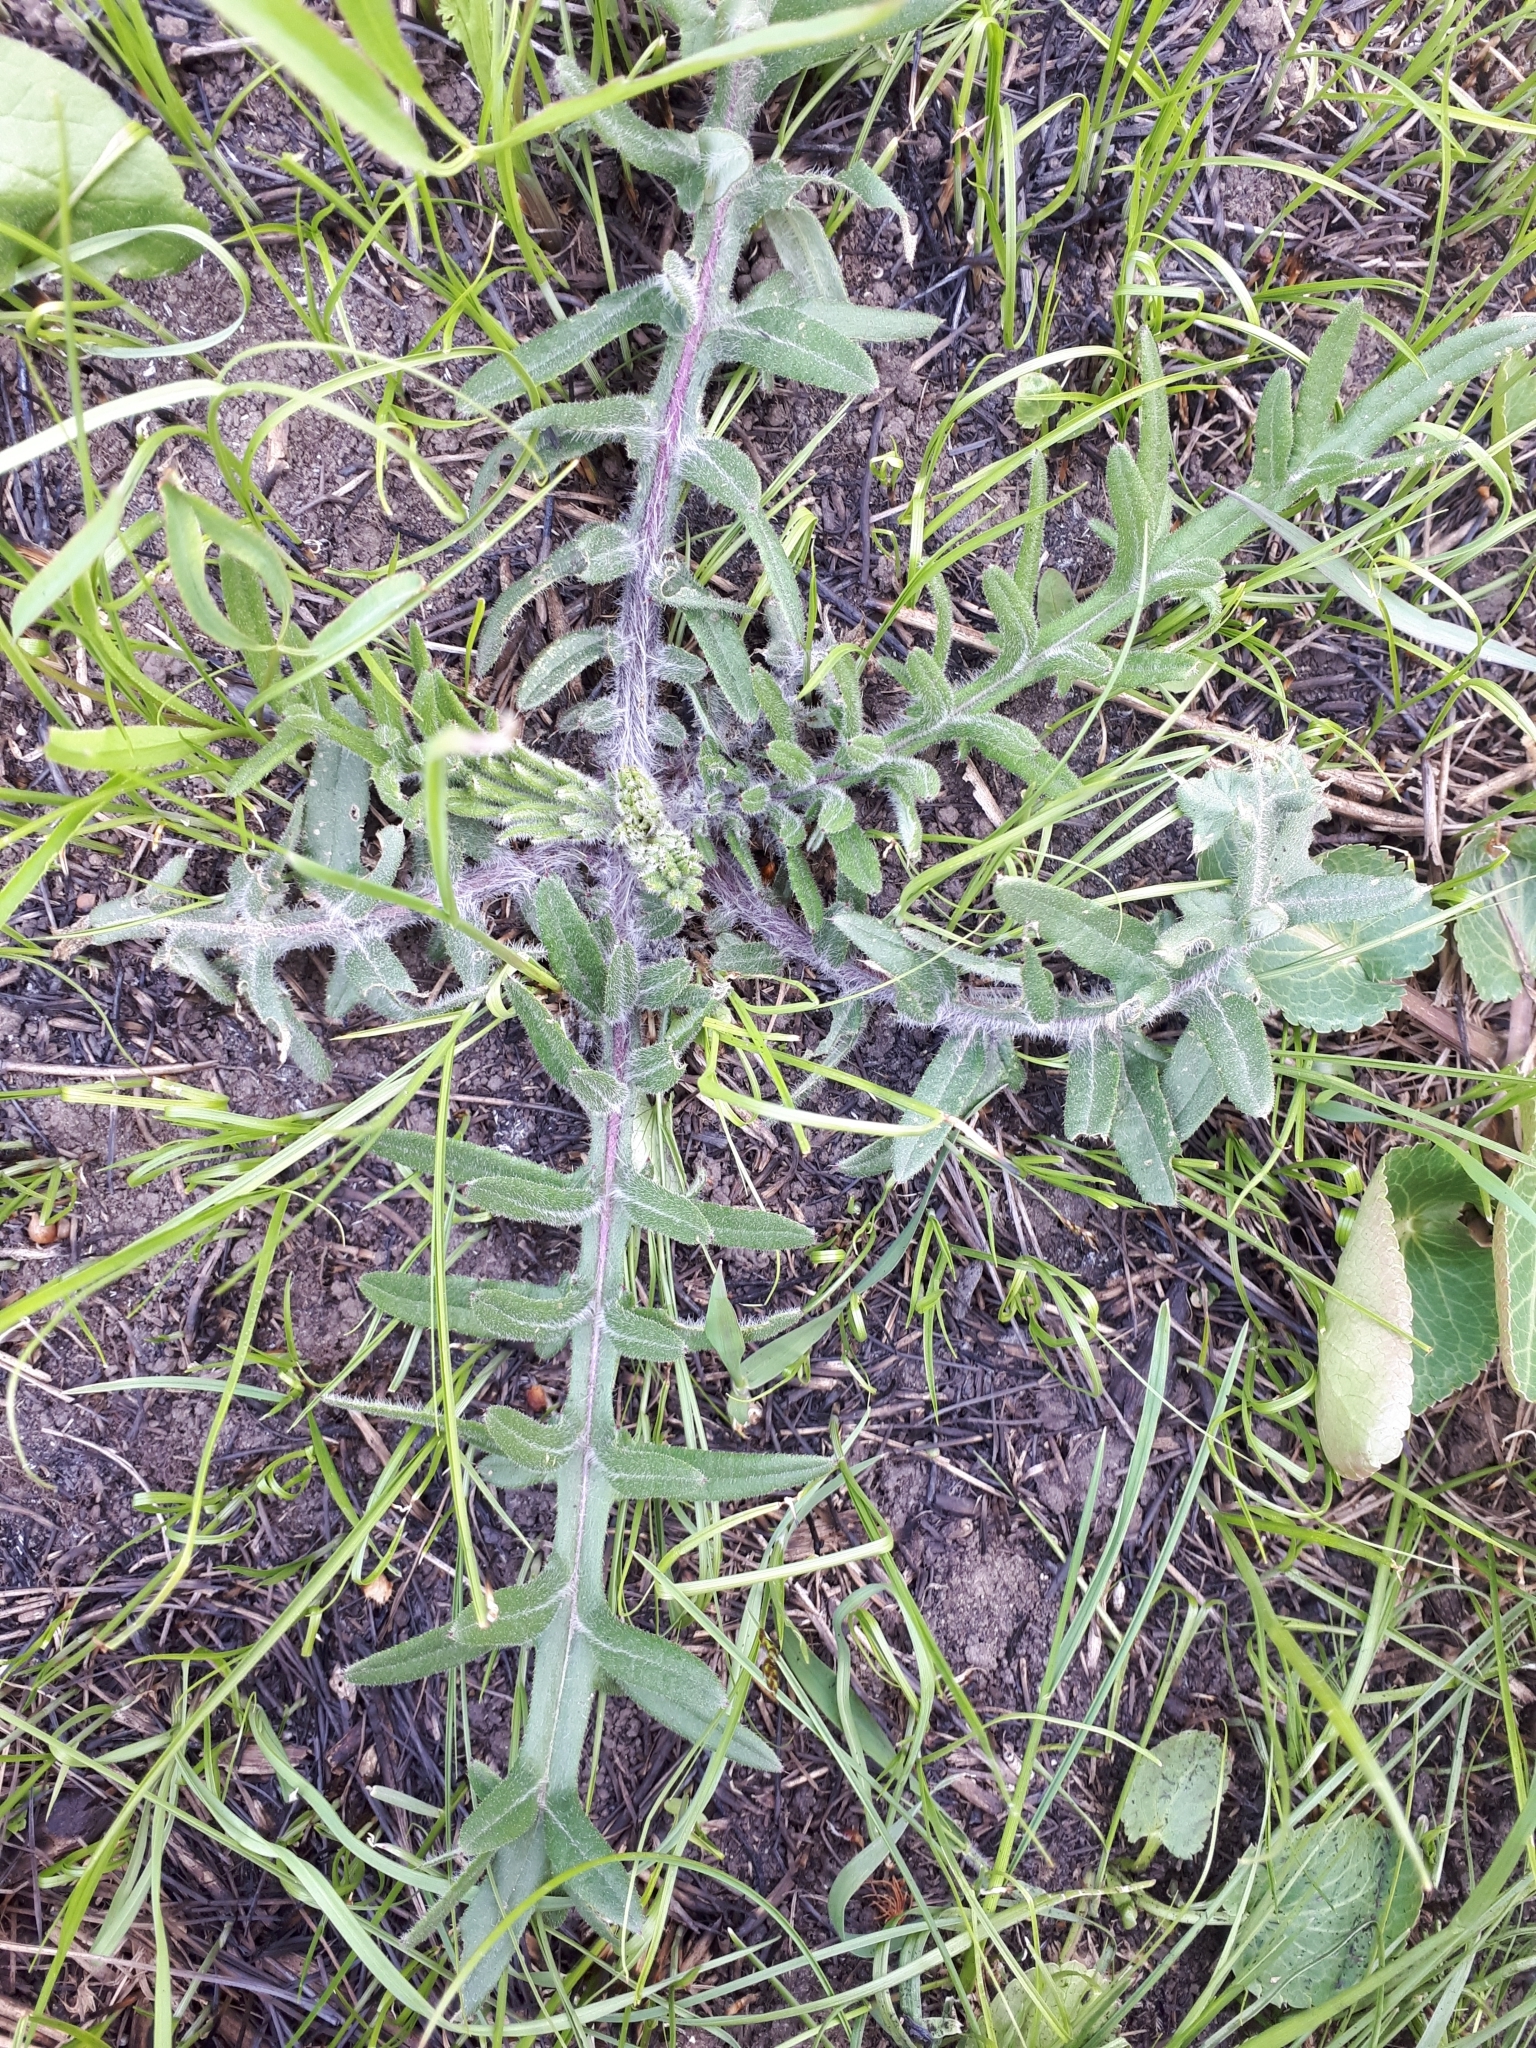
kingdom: Plantae
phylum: Tracheophyta
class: Magnoliopsida
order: Asterales
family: Asteraceae
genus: Lophiolepis
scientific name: Lophiolepis decussata
